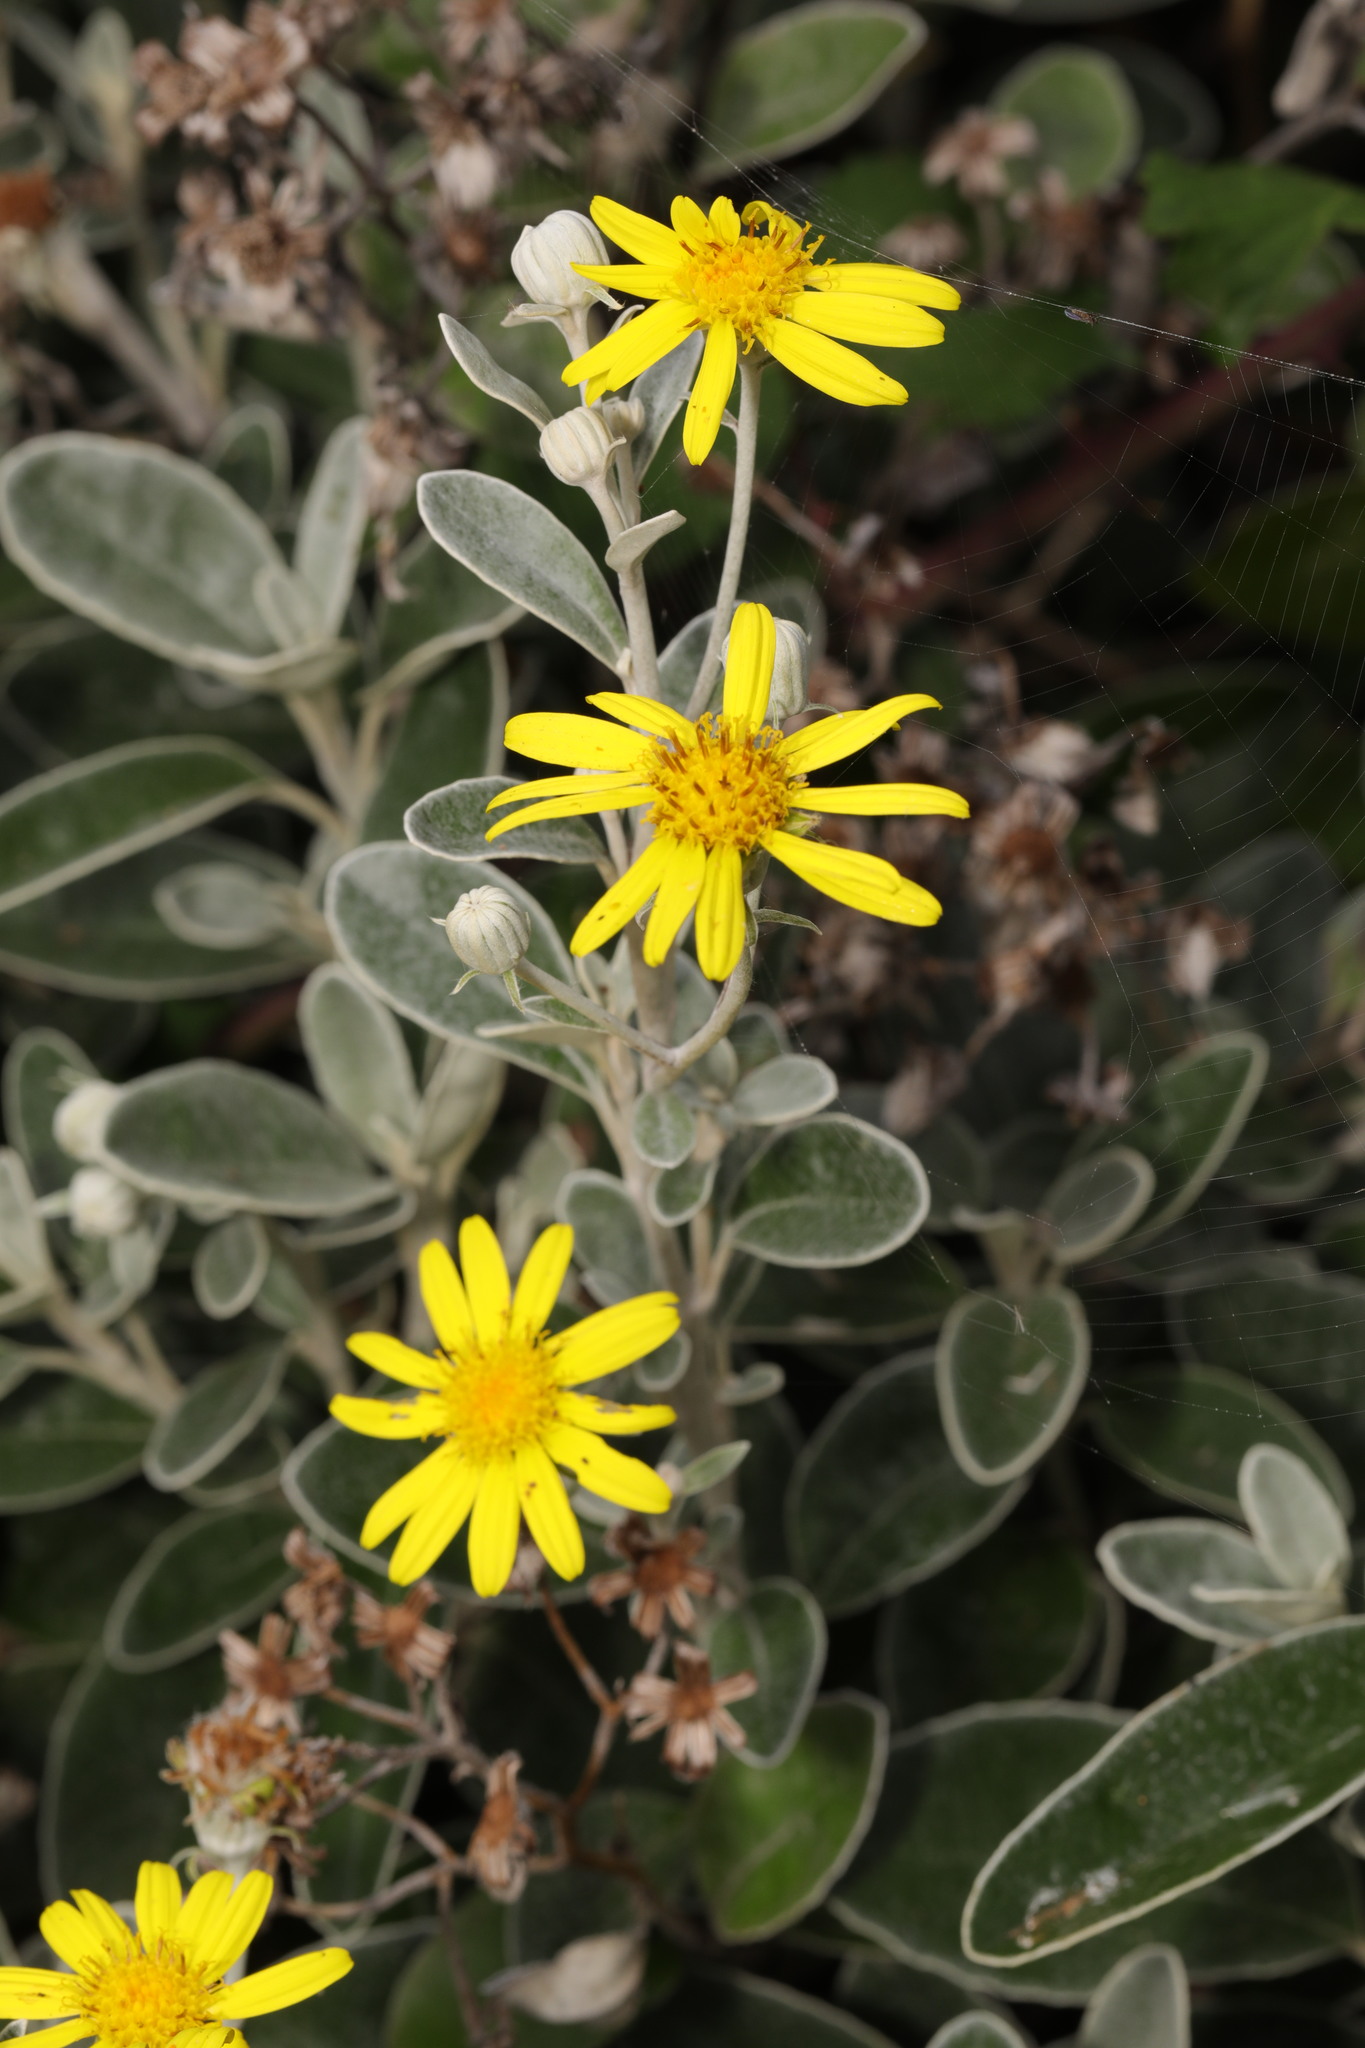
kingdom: Plantae
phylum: Tracheophyta
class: Magnoliopsida
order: Asterales
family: Asteraceae
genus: Brachyglottis
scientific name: Brachyglottis jubar
